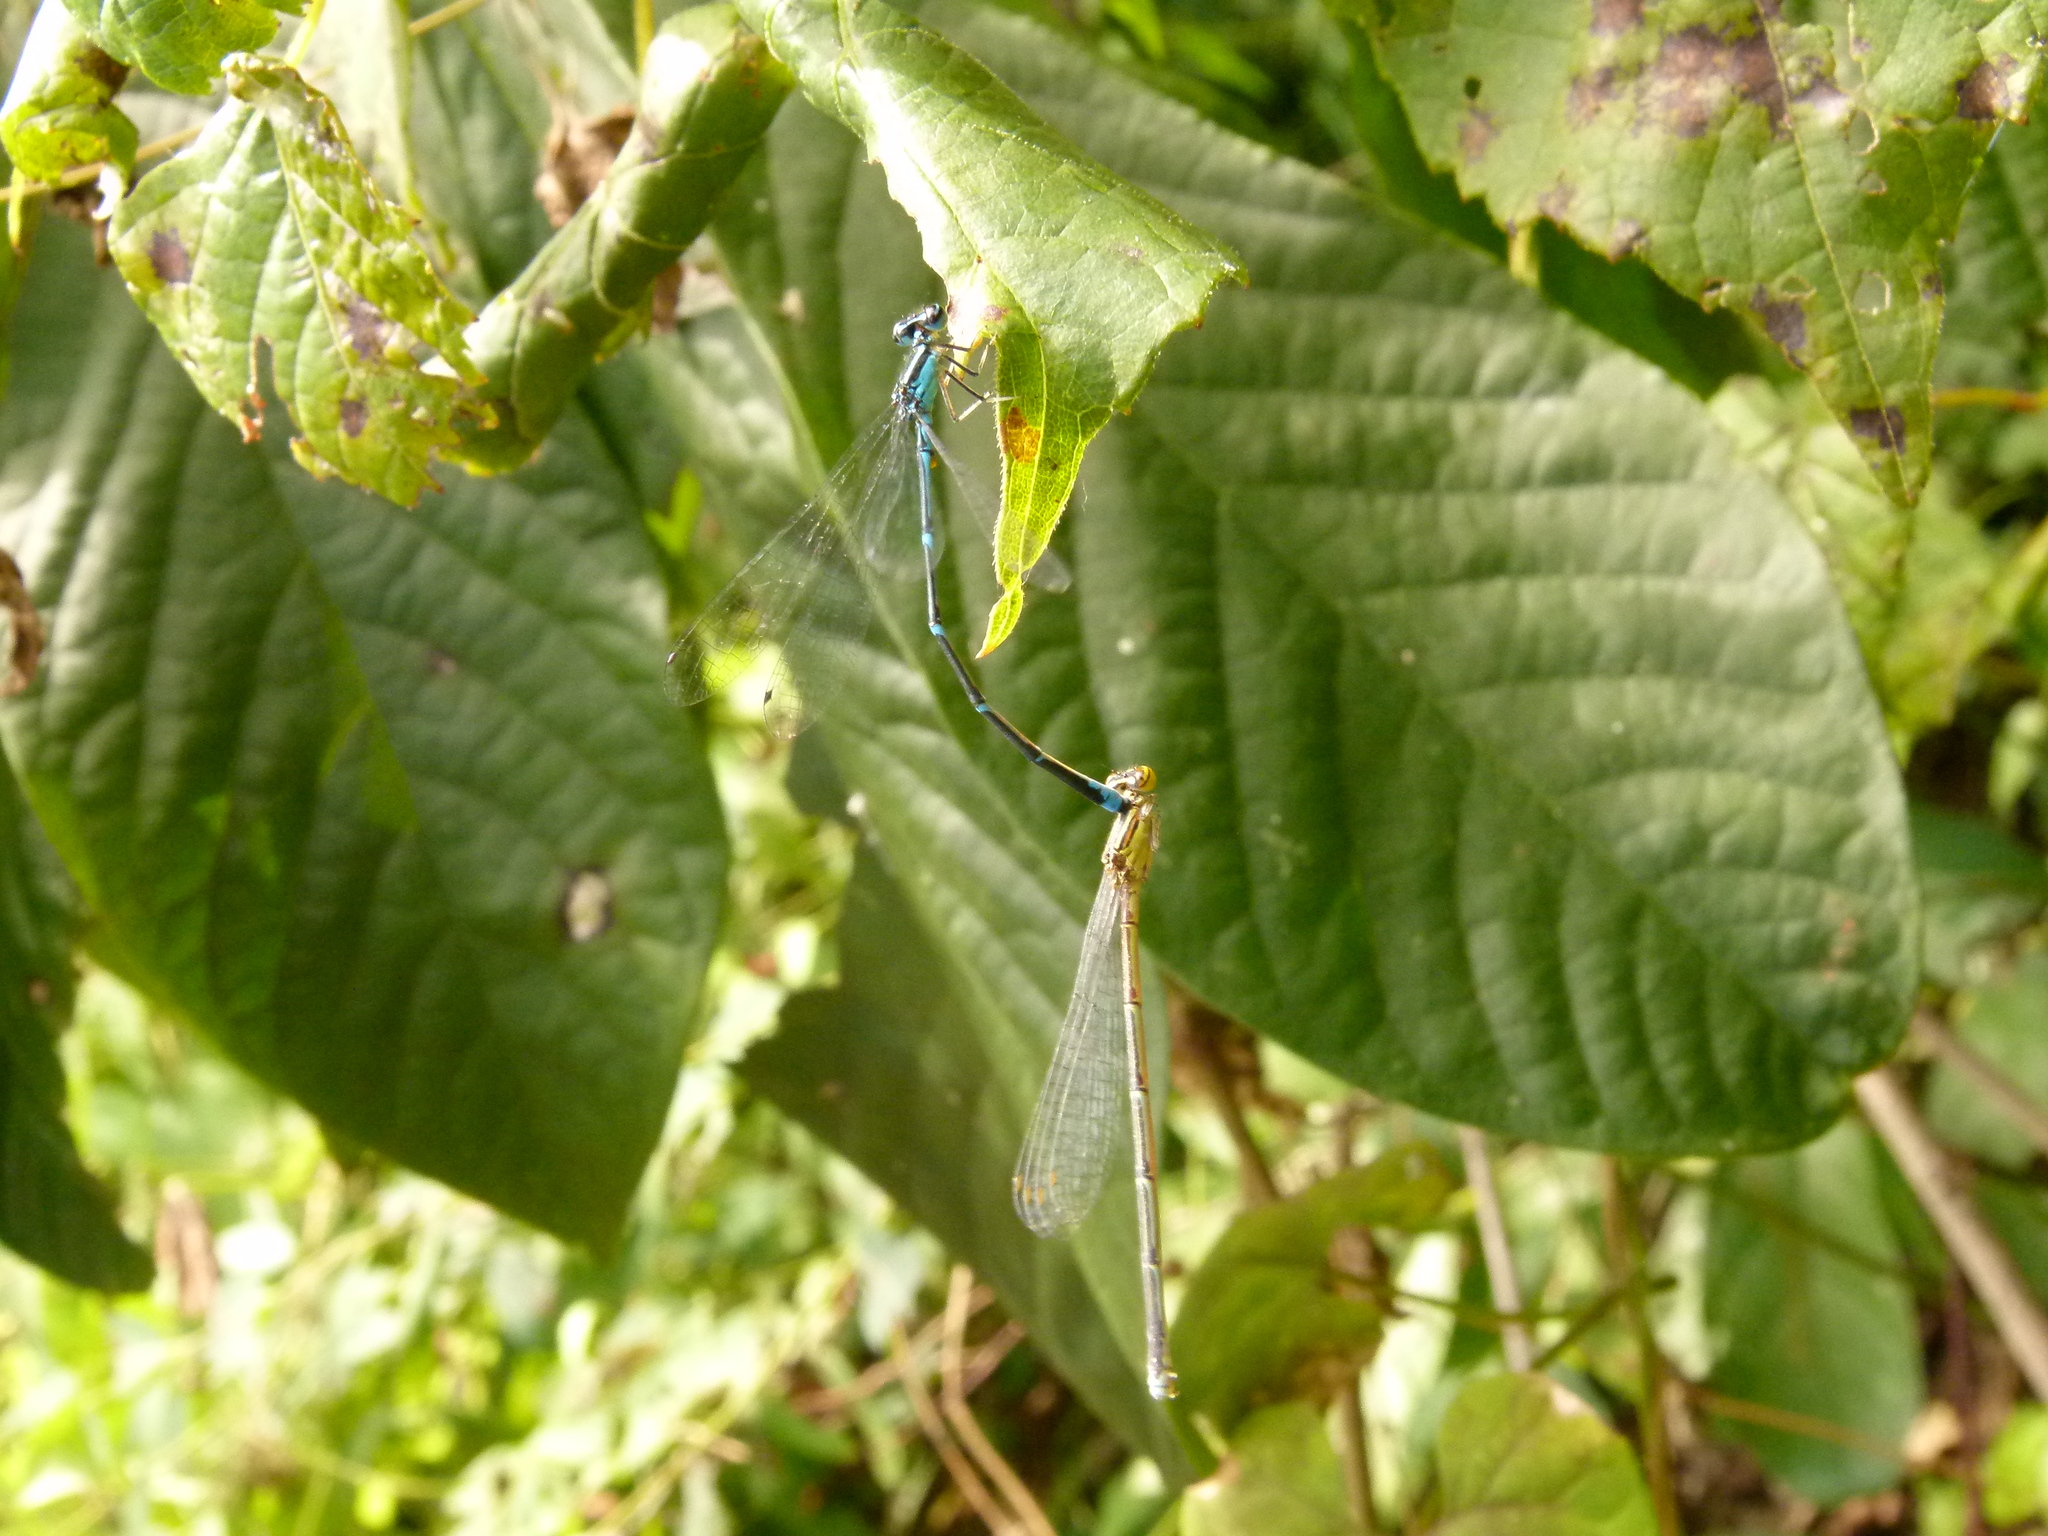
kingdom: Animalia
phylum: Arthropoda
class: Insecta
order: Odonata
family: Coenagrionidae
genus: Enallagma
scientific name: Enallagma exsulans
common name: Stream bluet
